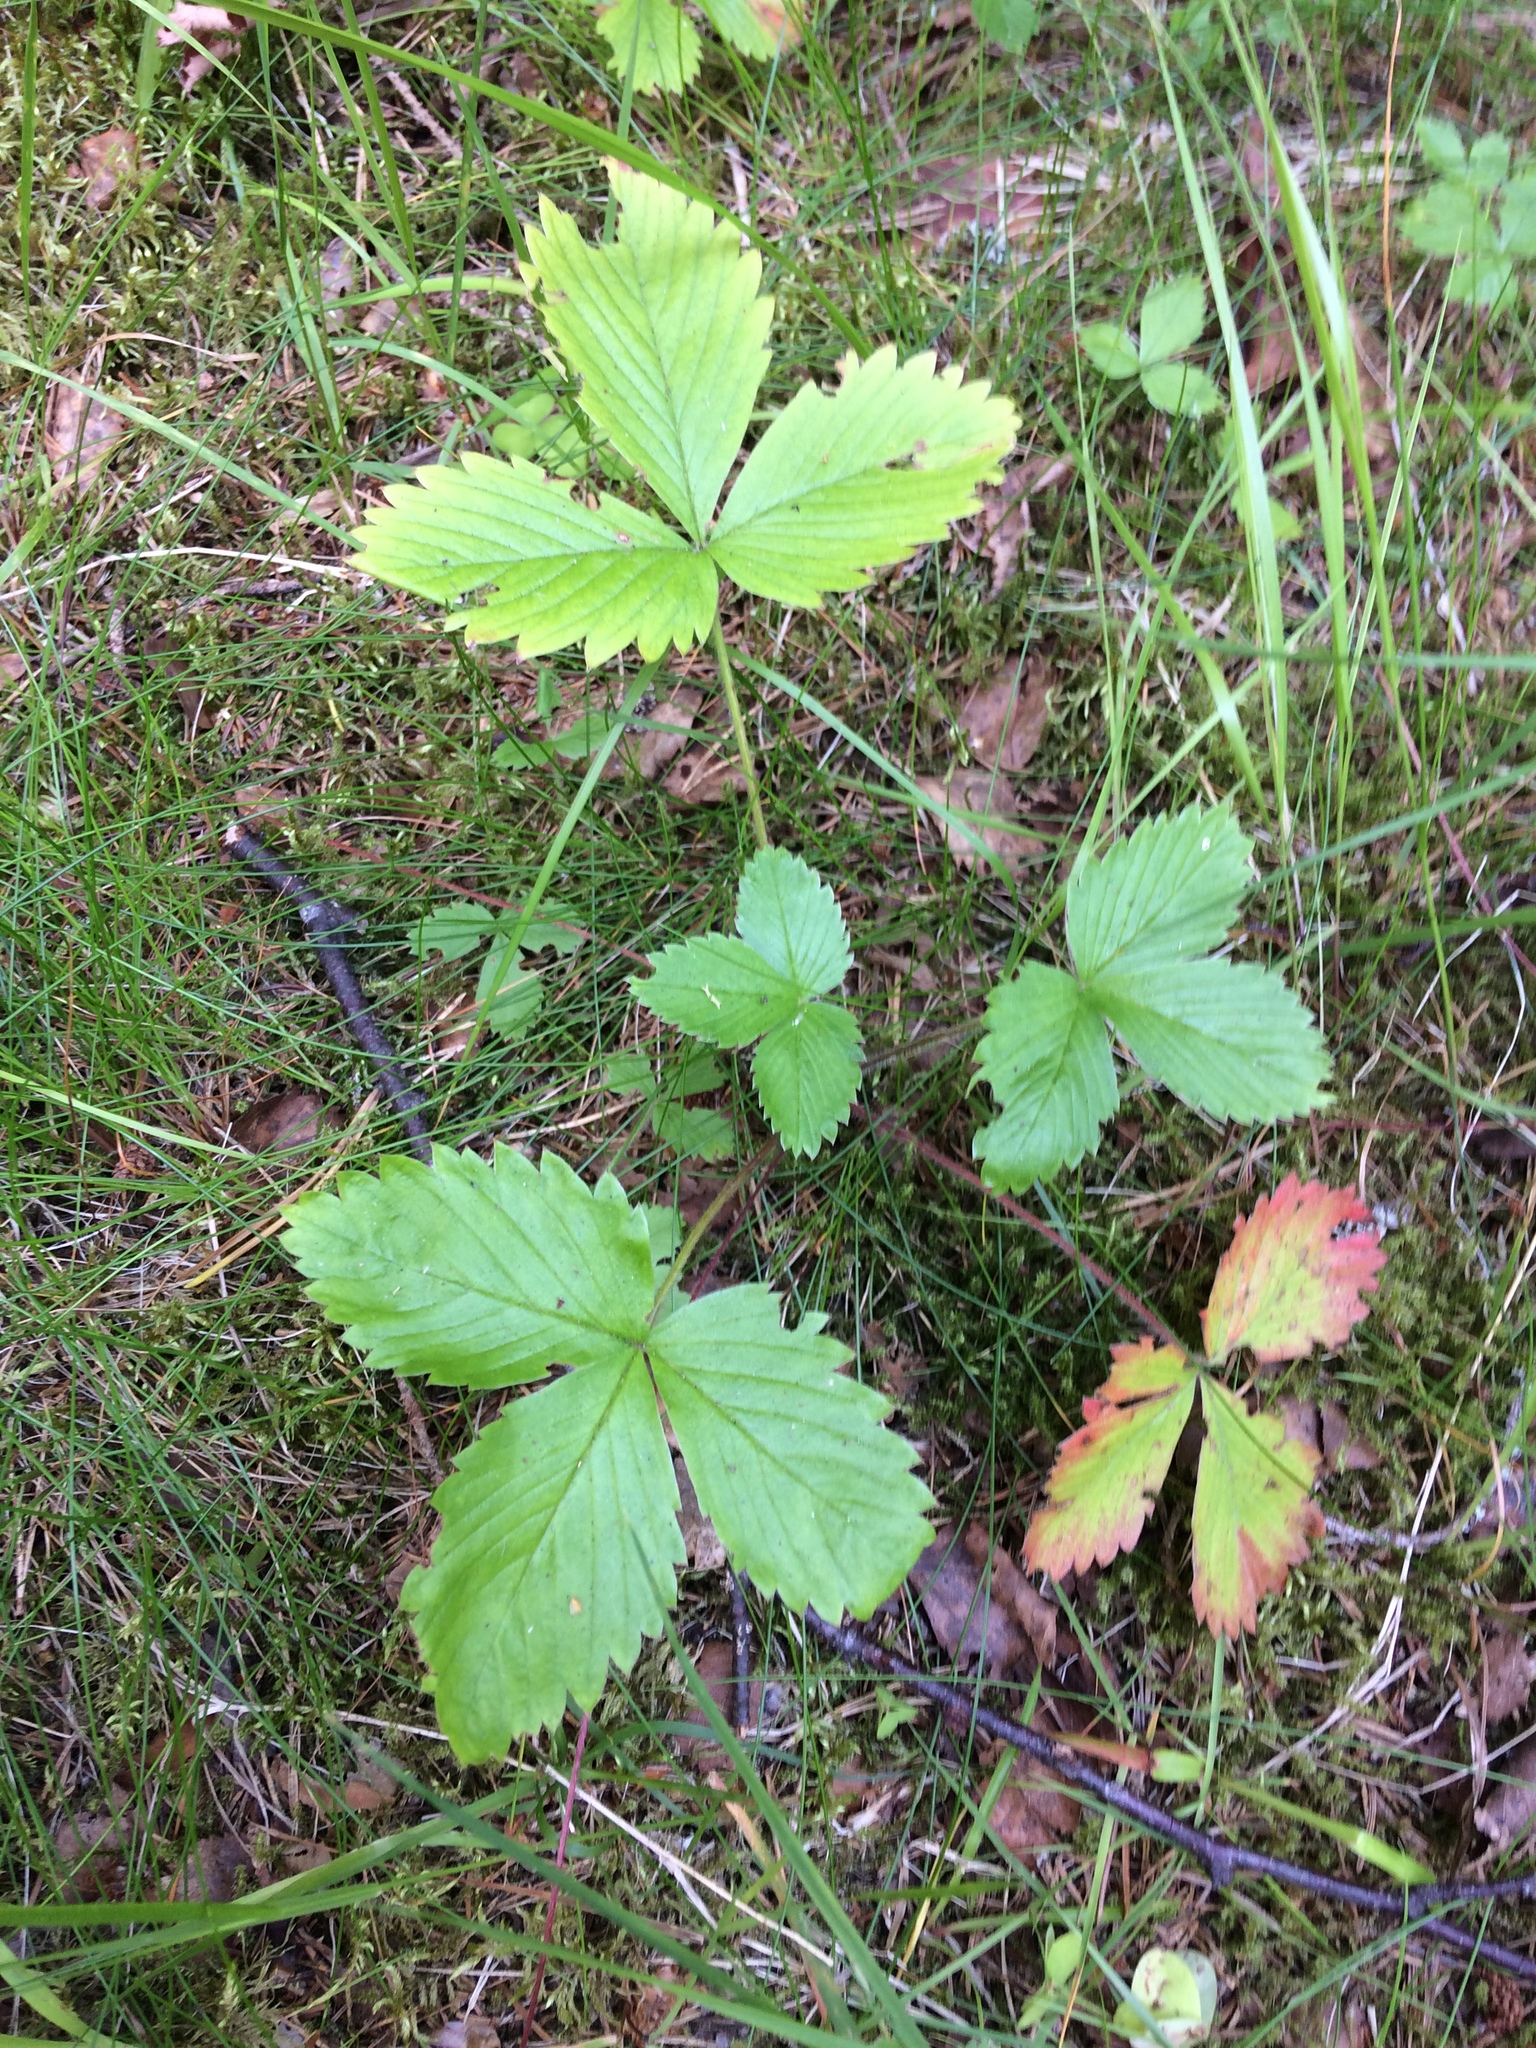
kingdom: Plantae
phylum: Tracheophyta
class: Magnoliopsida
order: Rosales
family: Rosaceae
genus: Fragaria
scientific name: Fragaria vesca
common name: Wild strawberry
